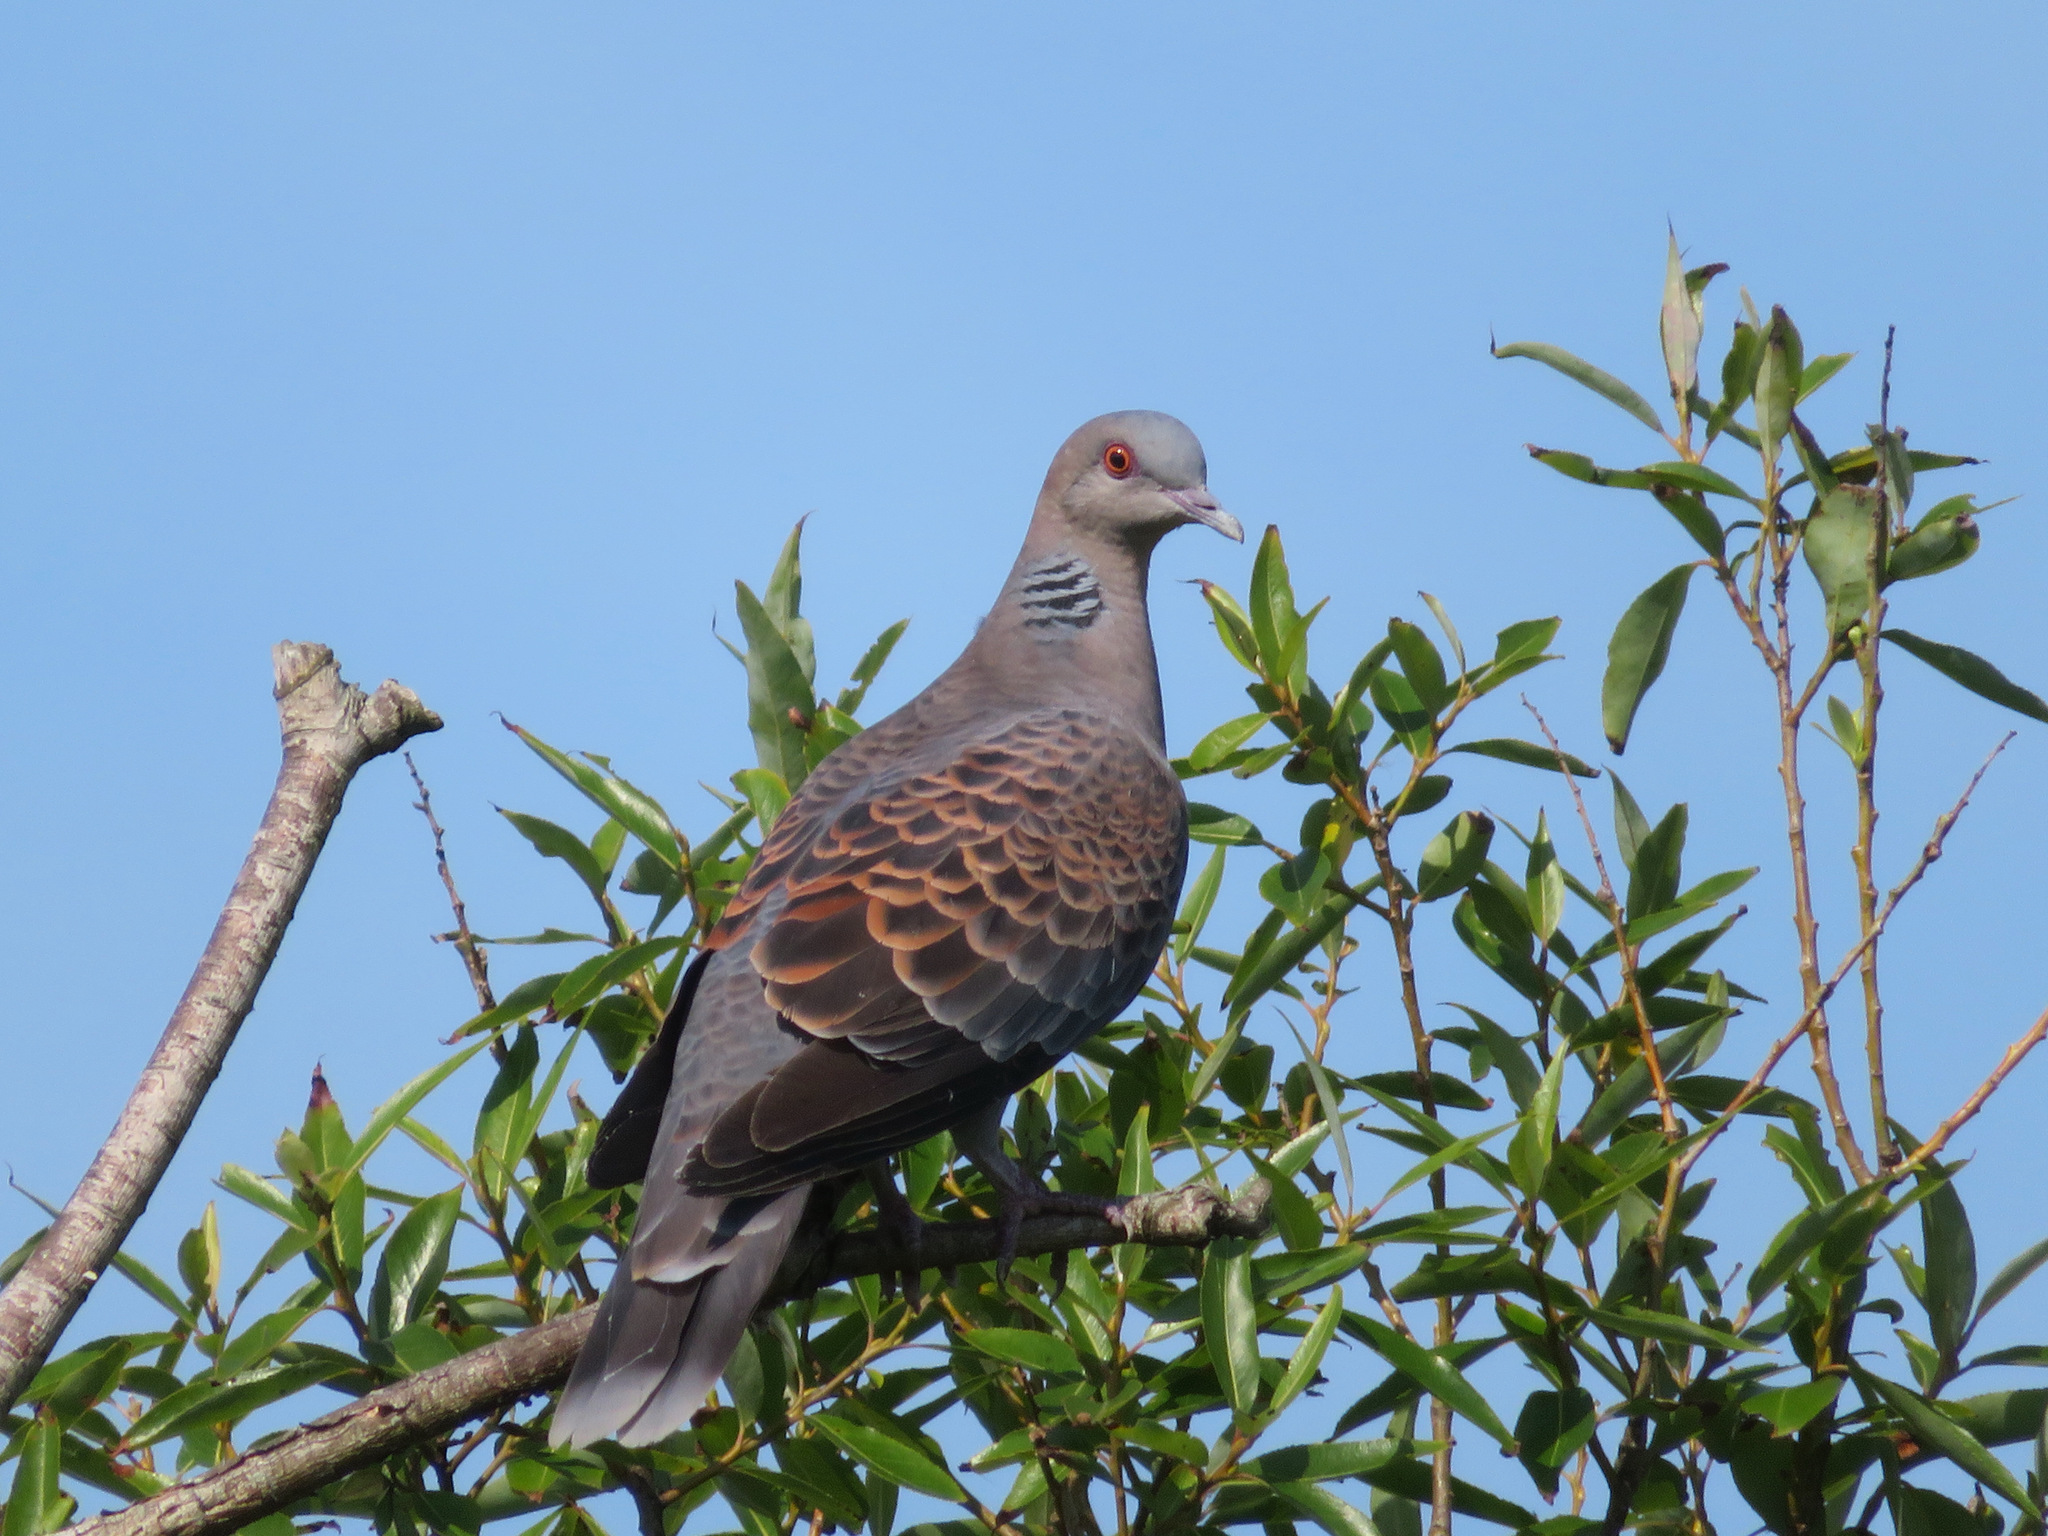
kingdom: Animalia
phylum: Chordata
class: Aves
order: Columbiformes
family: Columbidae
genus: Streptopelia
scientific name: Streptopelia orientalis
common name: Oriental turtle dove
